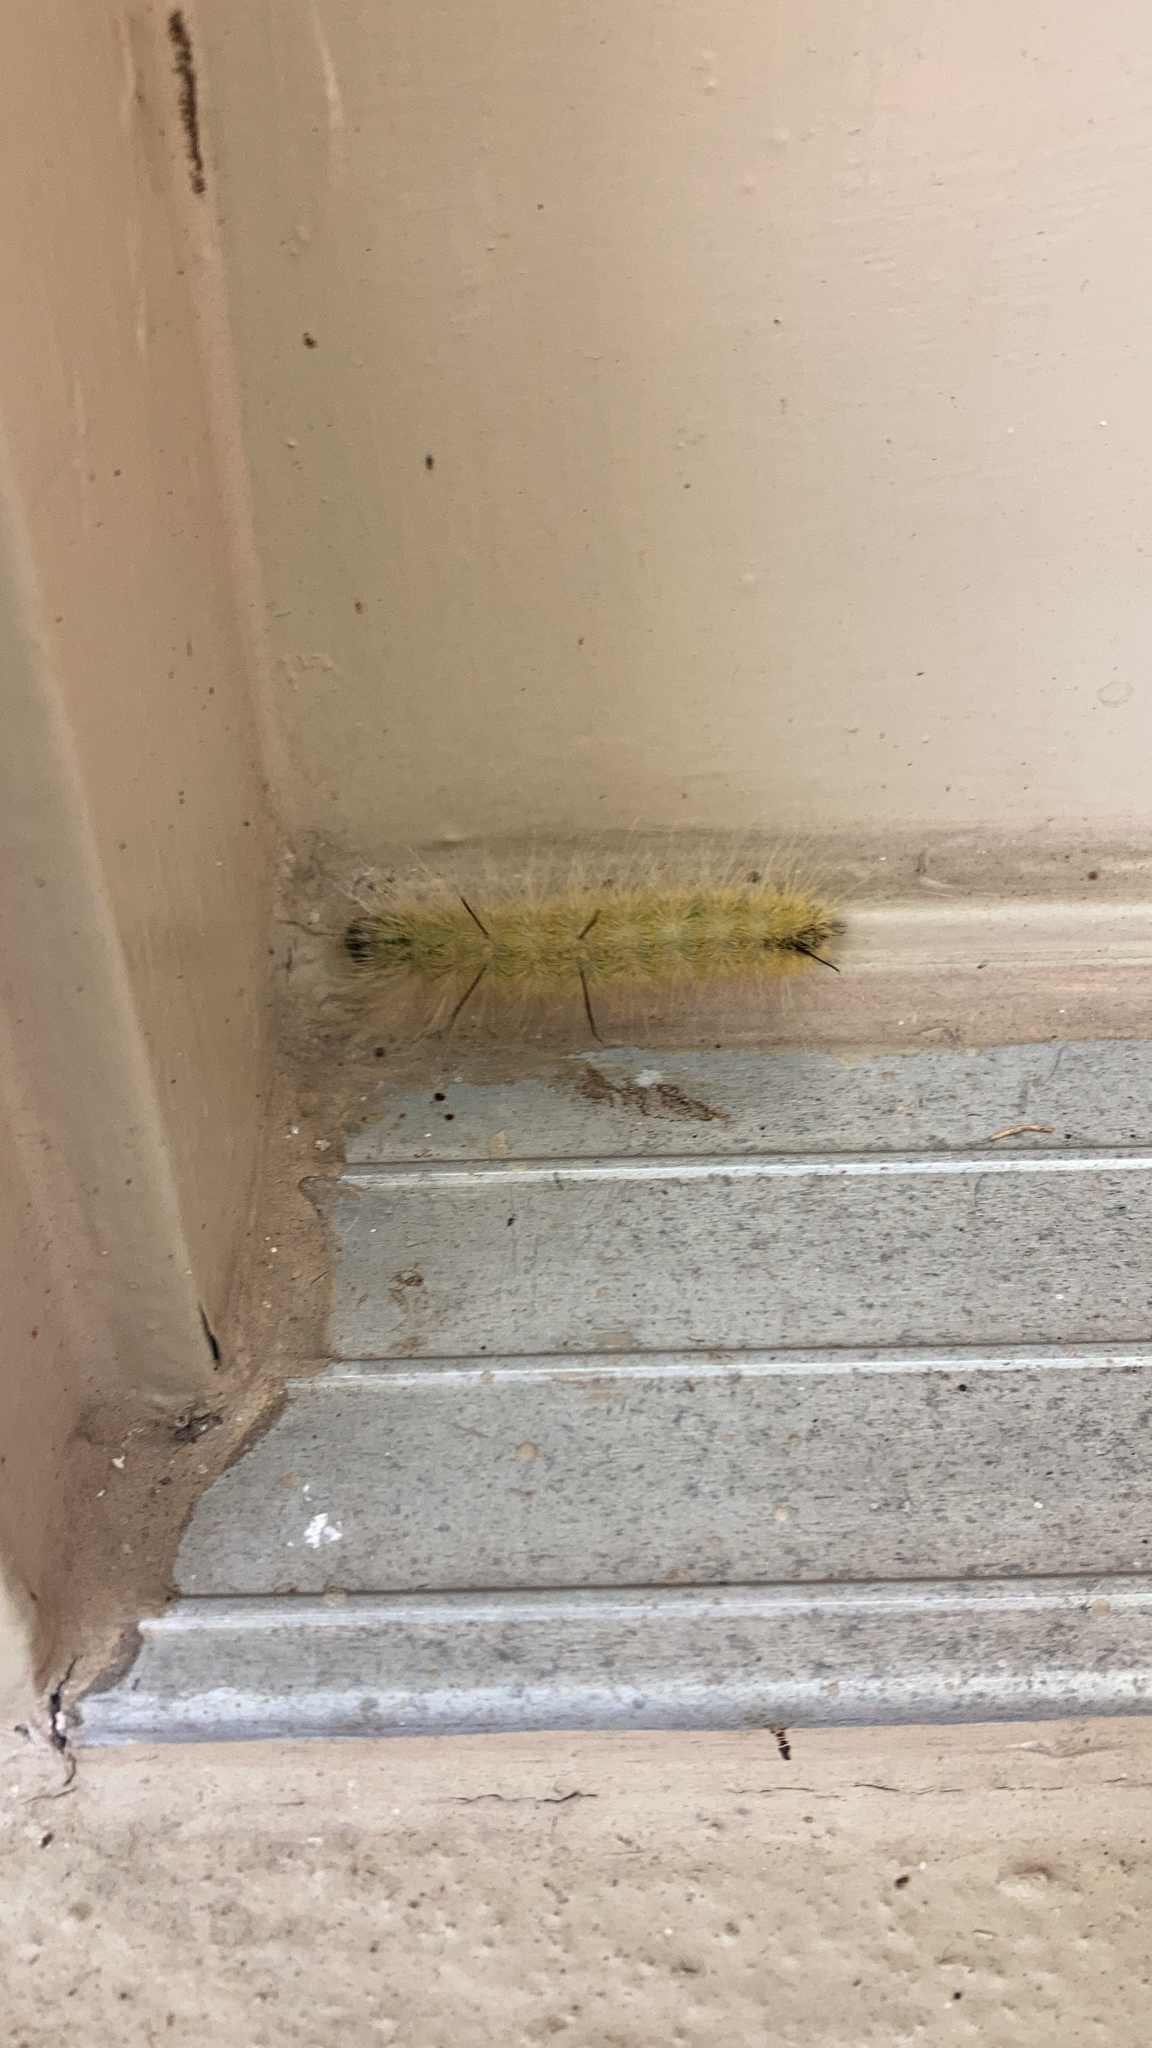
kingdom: Animalia
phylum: Arthropoda
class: Insecta
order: Lepidoptera
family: Noctuidae
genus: Acronicta
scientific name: Acronicta americana
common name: American dagger
